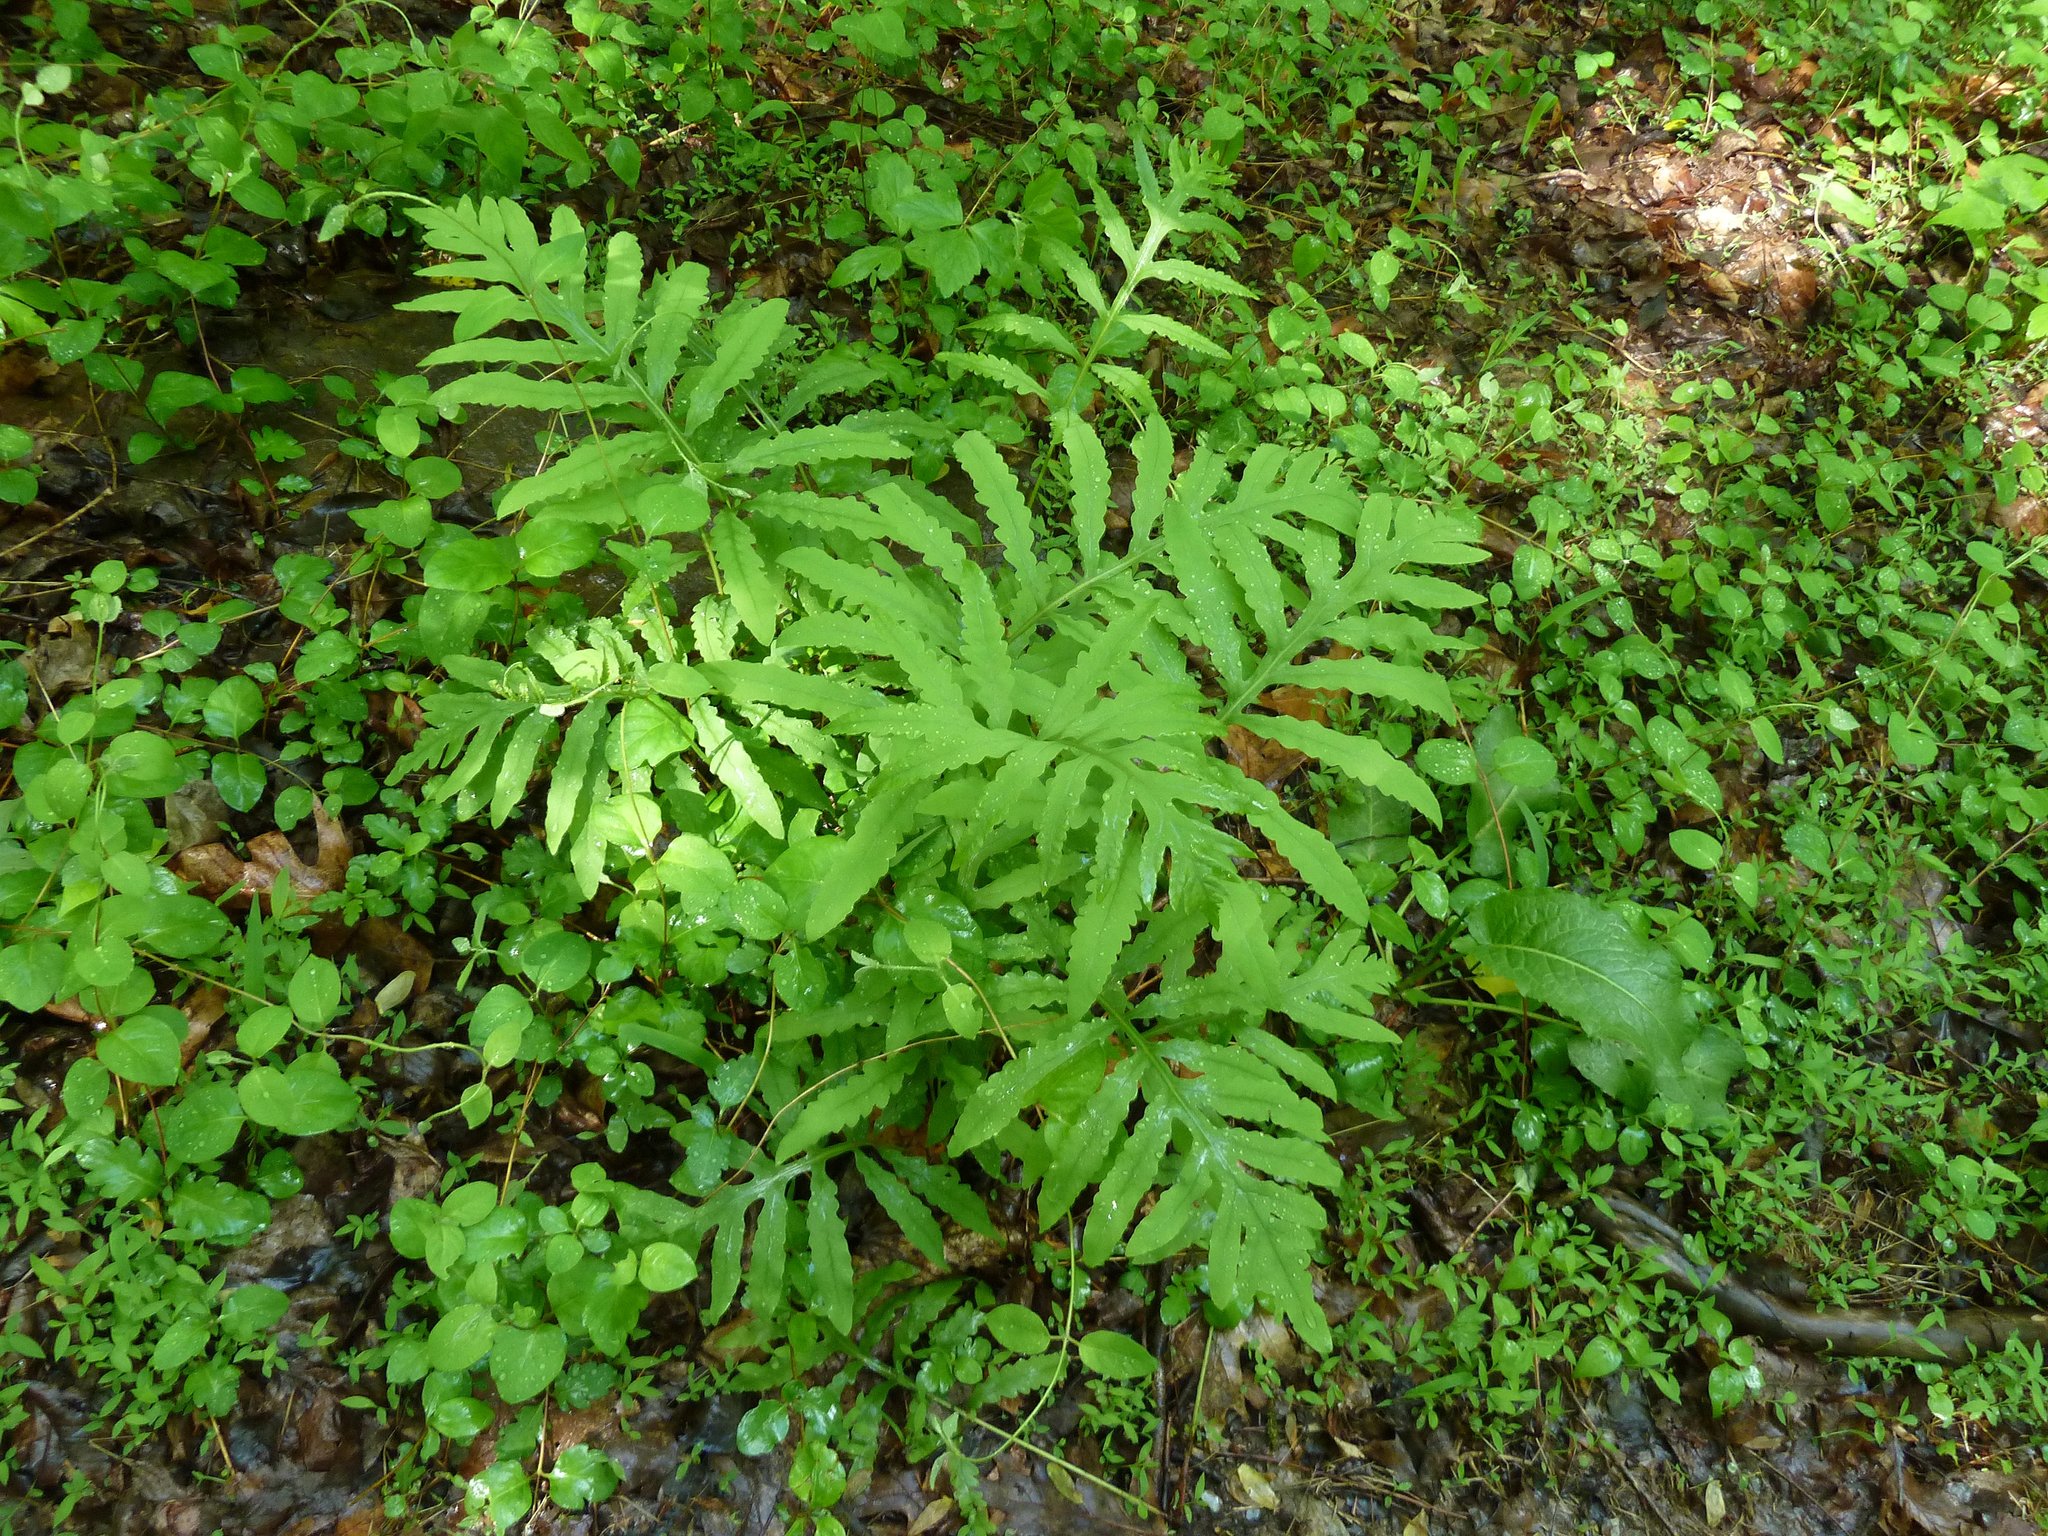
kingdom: Plantae
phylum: Tracheophyta
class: Polypodiopsida
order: Polypodiales
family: Onocleaceae
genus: Onoclea
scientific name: Onoclea sensibilis
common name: Sensitive fern
